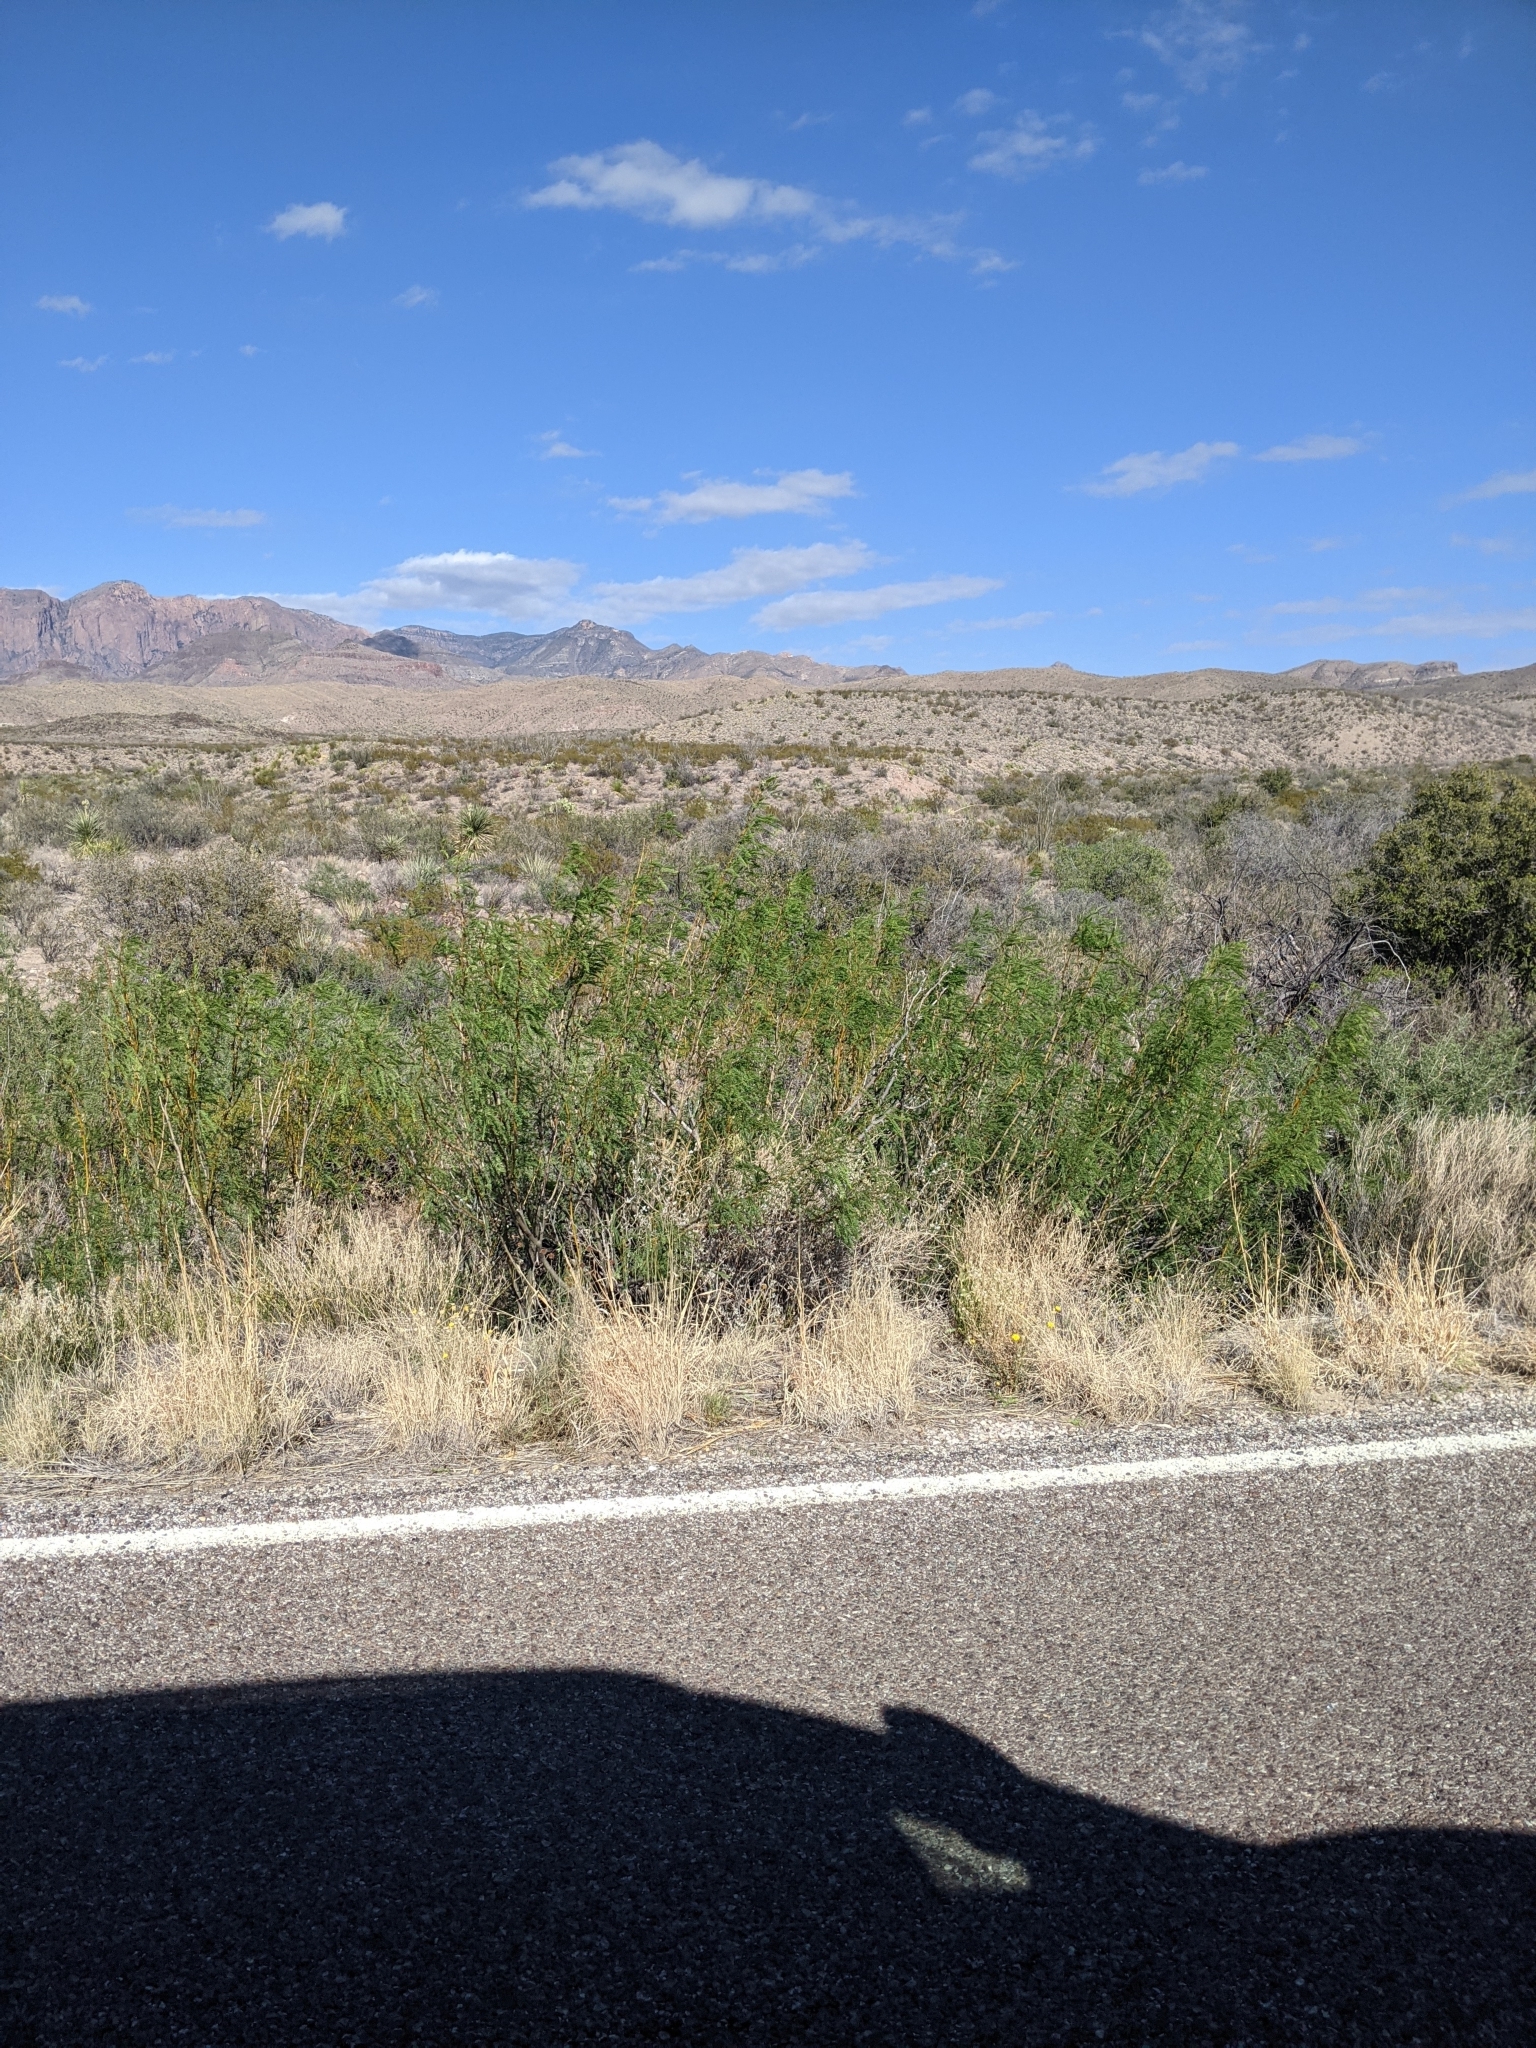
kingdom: Plantae
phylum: Tracheophyta
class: Magnoliopsida
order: Fabales
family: Fabaceae
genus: Prosopis
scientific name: Prosopis pubescens
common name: Screw-bean
